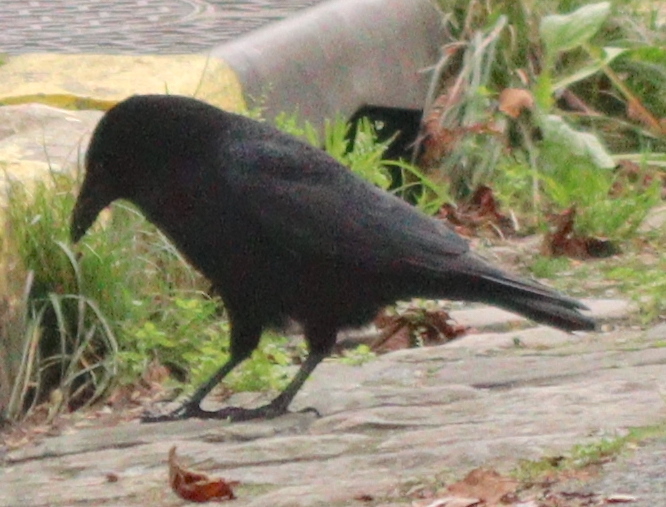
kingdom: Animalia
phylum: Chordata
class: Aves
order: Passeriformes
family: Corvidae
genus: Corvus
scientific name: Corvus corone
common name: Carrion crow
